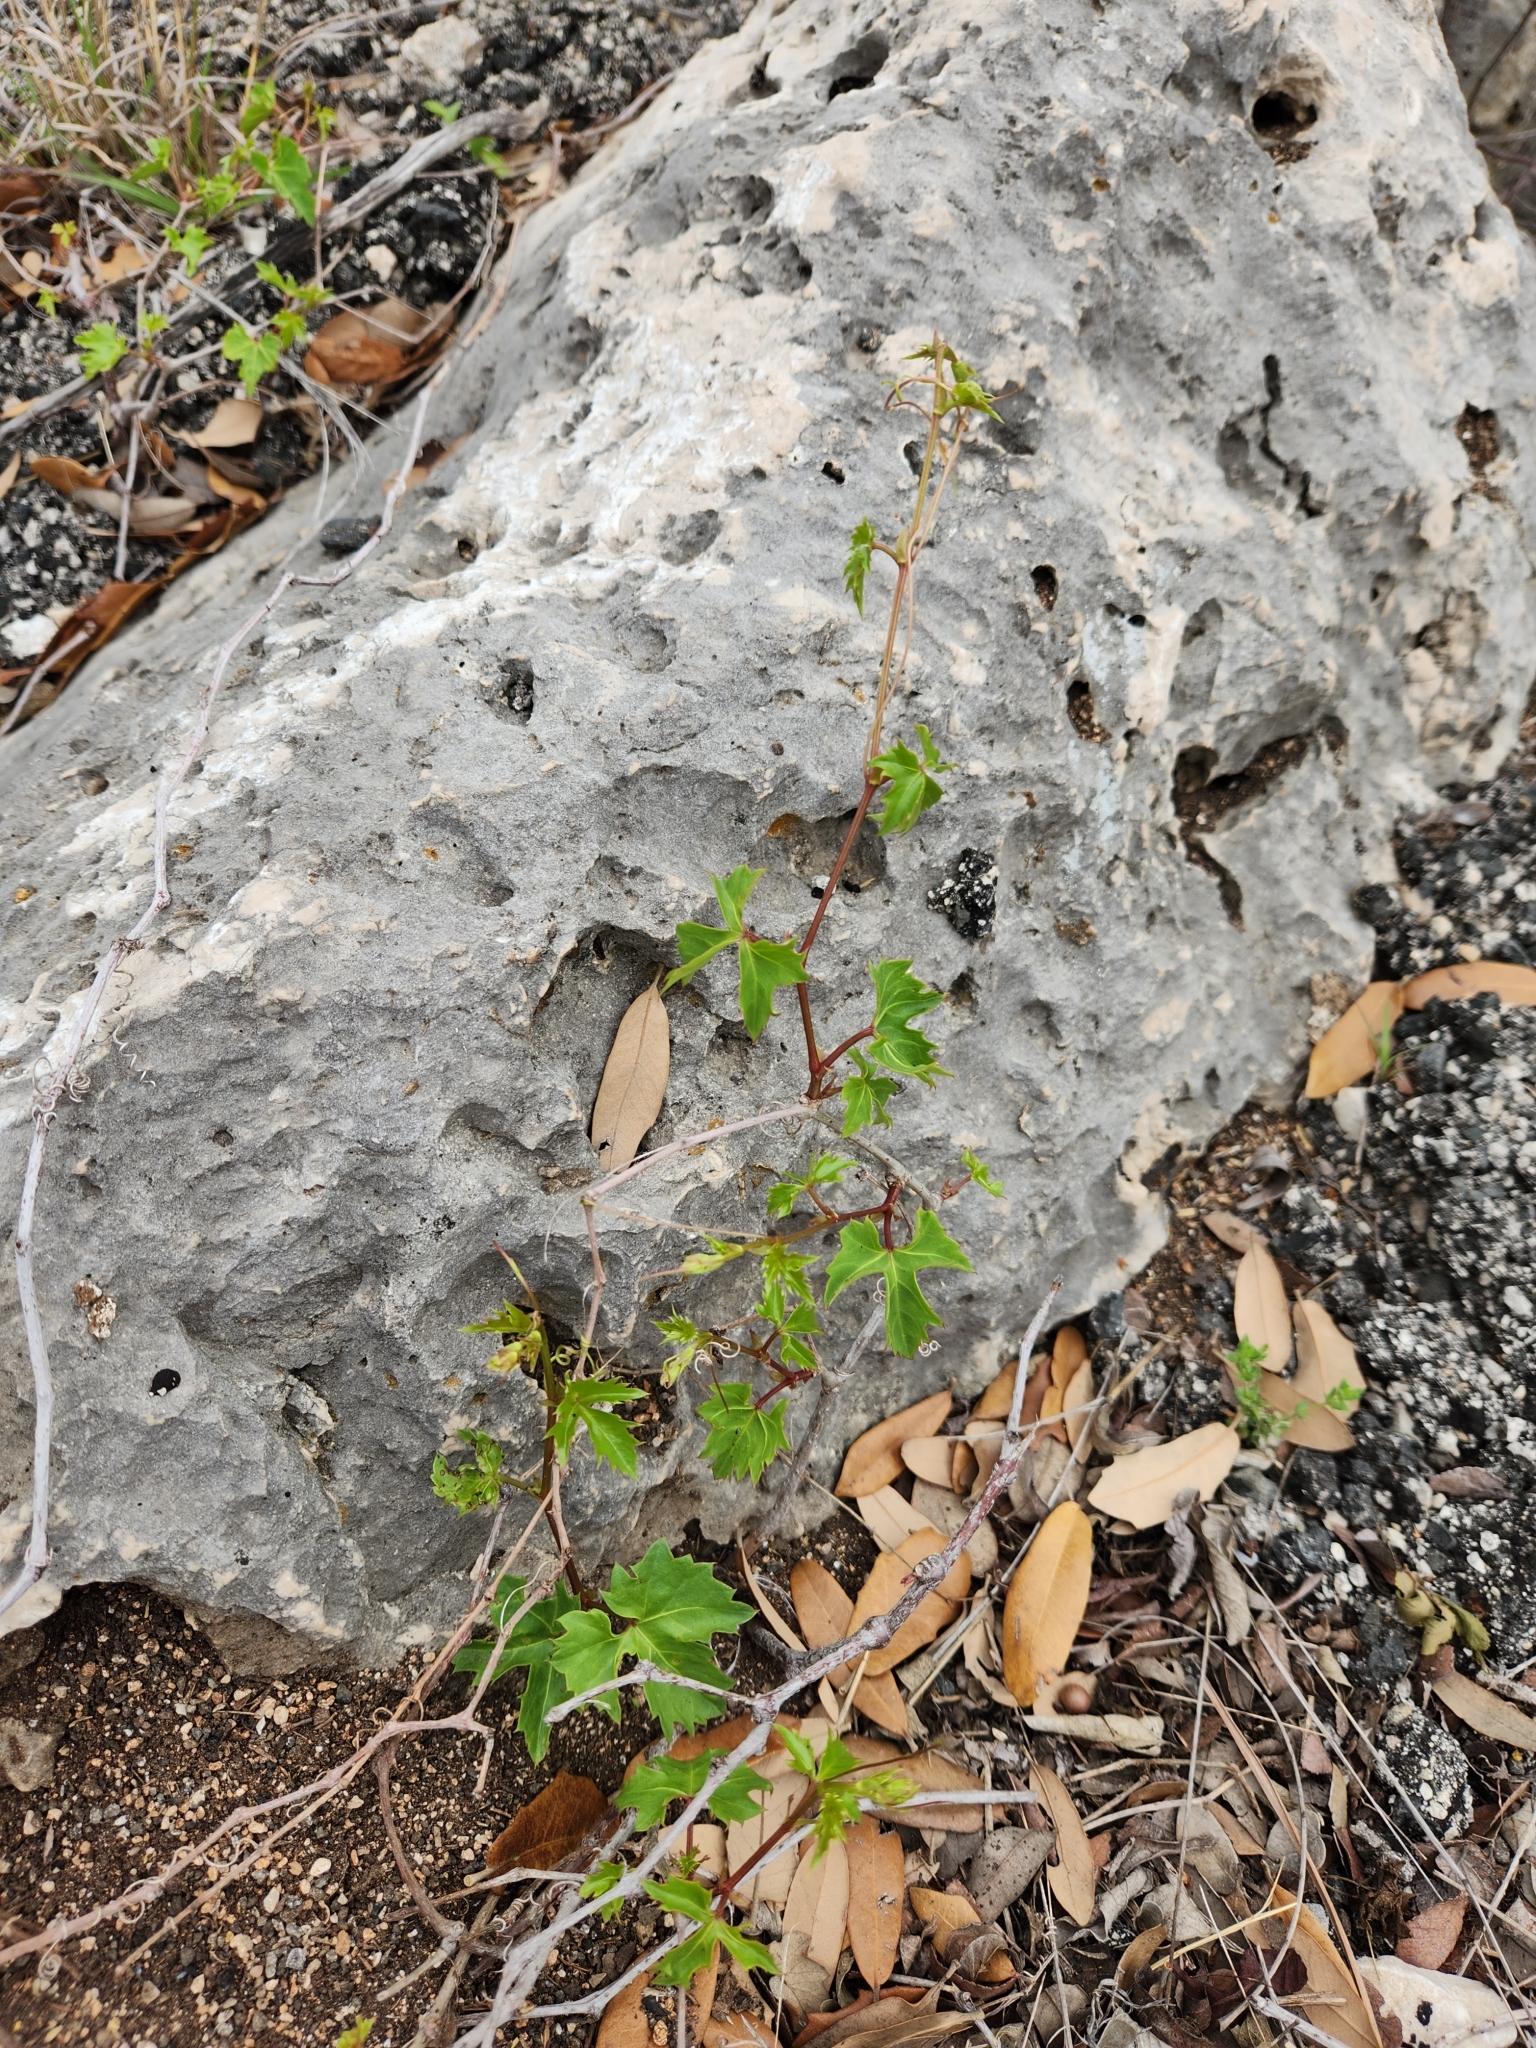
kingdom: Plantae
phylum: Tracheophyta
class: Magnoliopsida
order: Vitales
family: Vitaceae
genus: Cissus
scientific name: Cissus trifoliata
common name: Vine-sorrel
